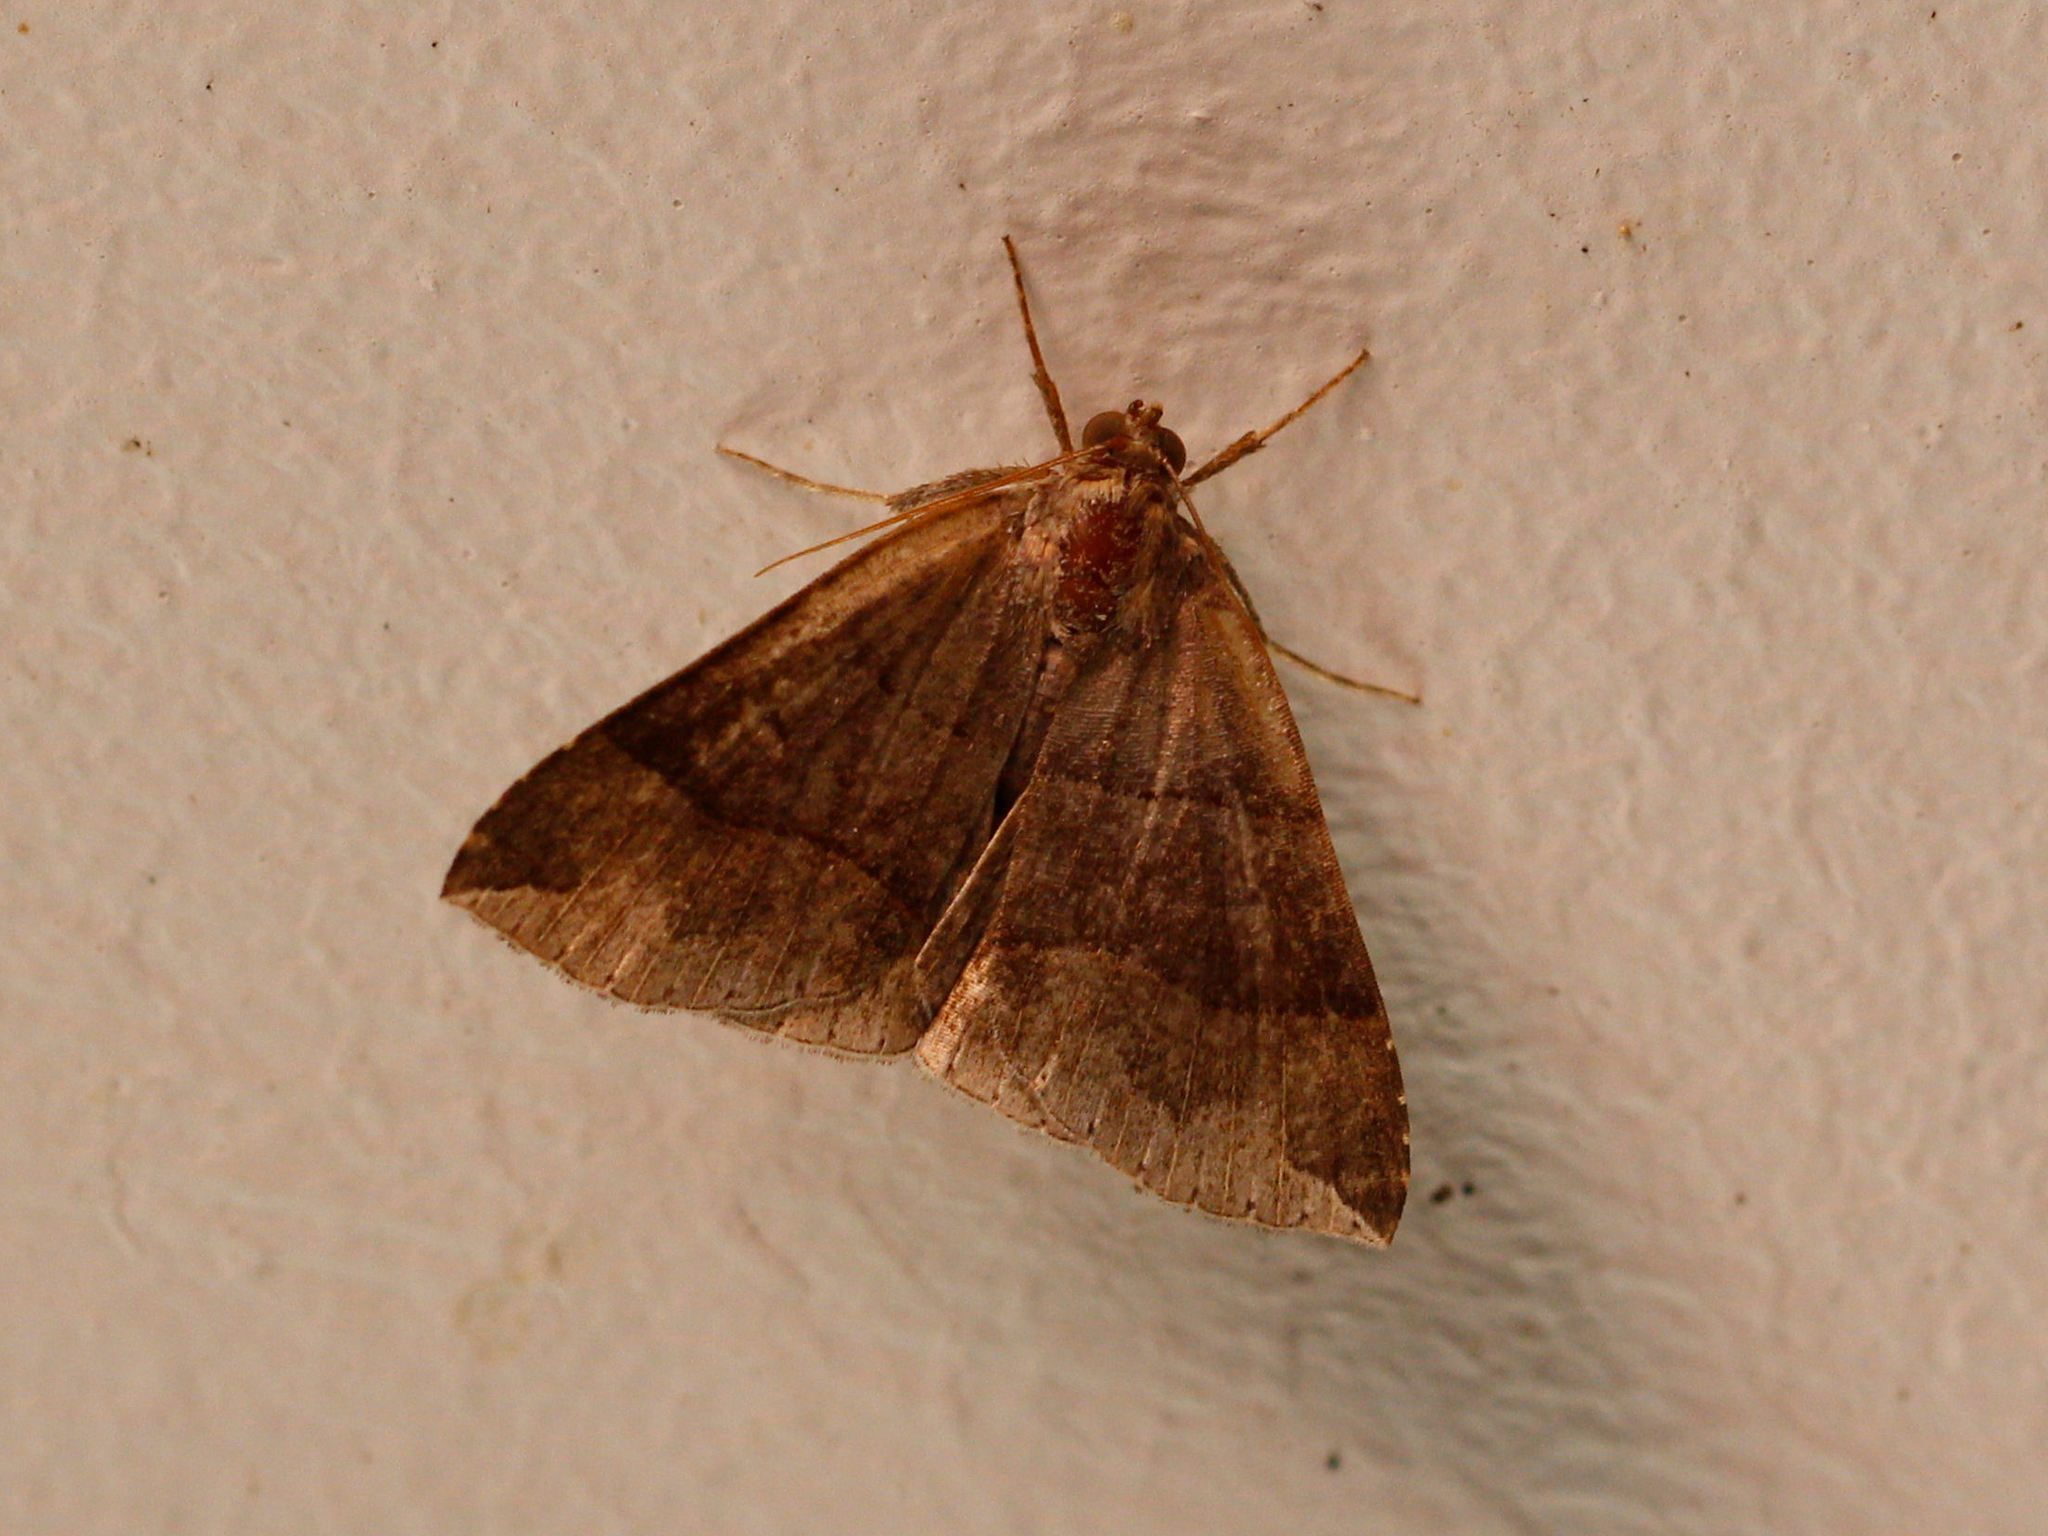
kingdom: Animalia
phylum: Arthropoda
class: Insecta
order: Lepidoptera
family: Erebidae
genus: Parallelia
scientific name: Parallelia bistriaris
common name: Maple looper moth
